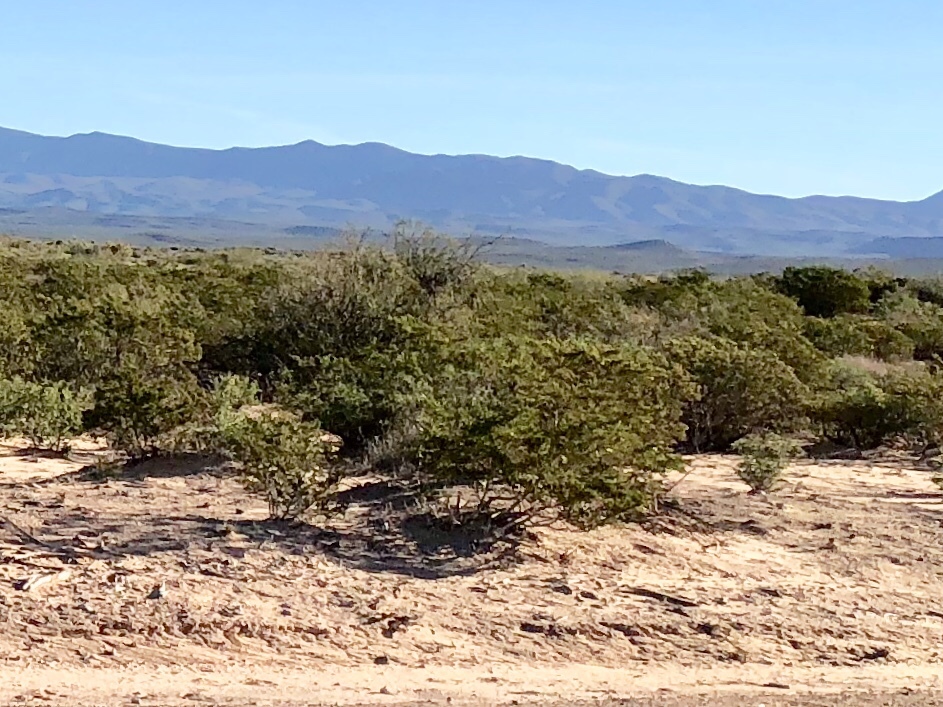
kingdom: Plantae
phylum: Tracheophyta
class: Magnoliopsida
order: Zygophyllales
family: Zygophyllaceae
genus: Larrea
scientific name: Larrea tridentata
